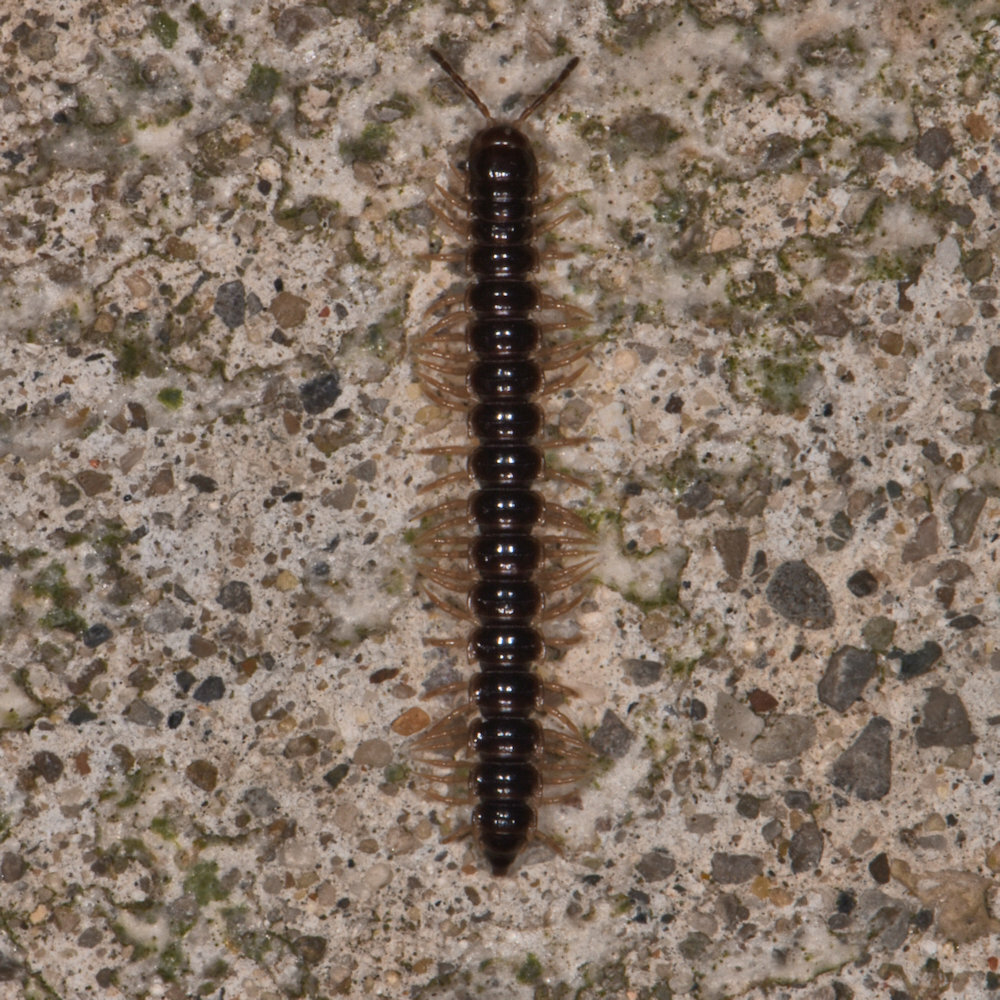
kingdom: Animalia
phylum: Arthropoda
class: Diplopoda
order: Polydesmida
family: Paradoxosomatidae
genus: Oxidus
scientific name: Oxidus gracilis
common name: Greenhouse millipede
